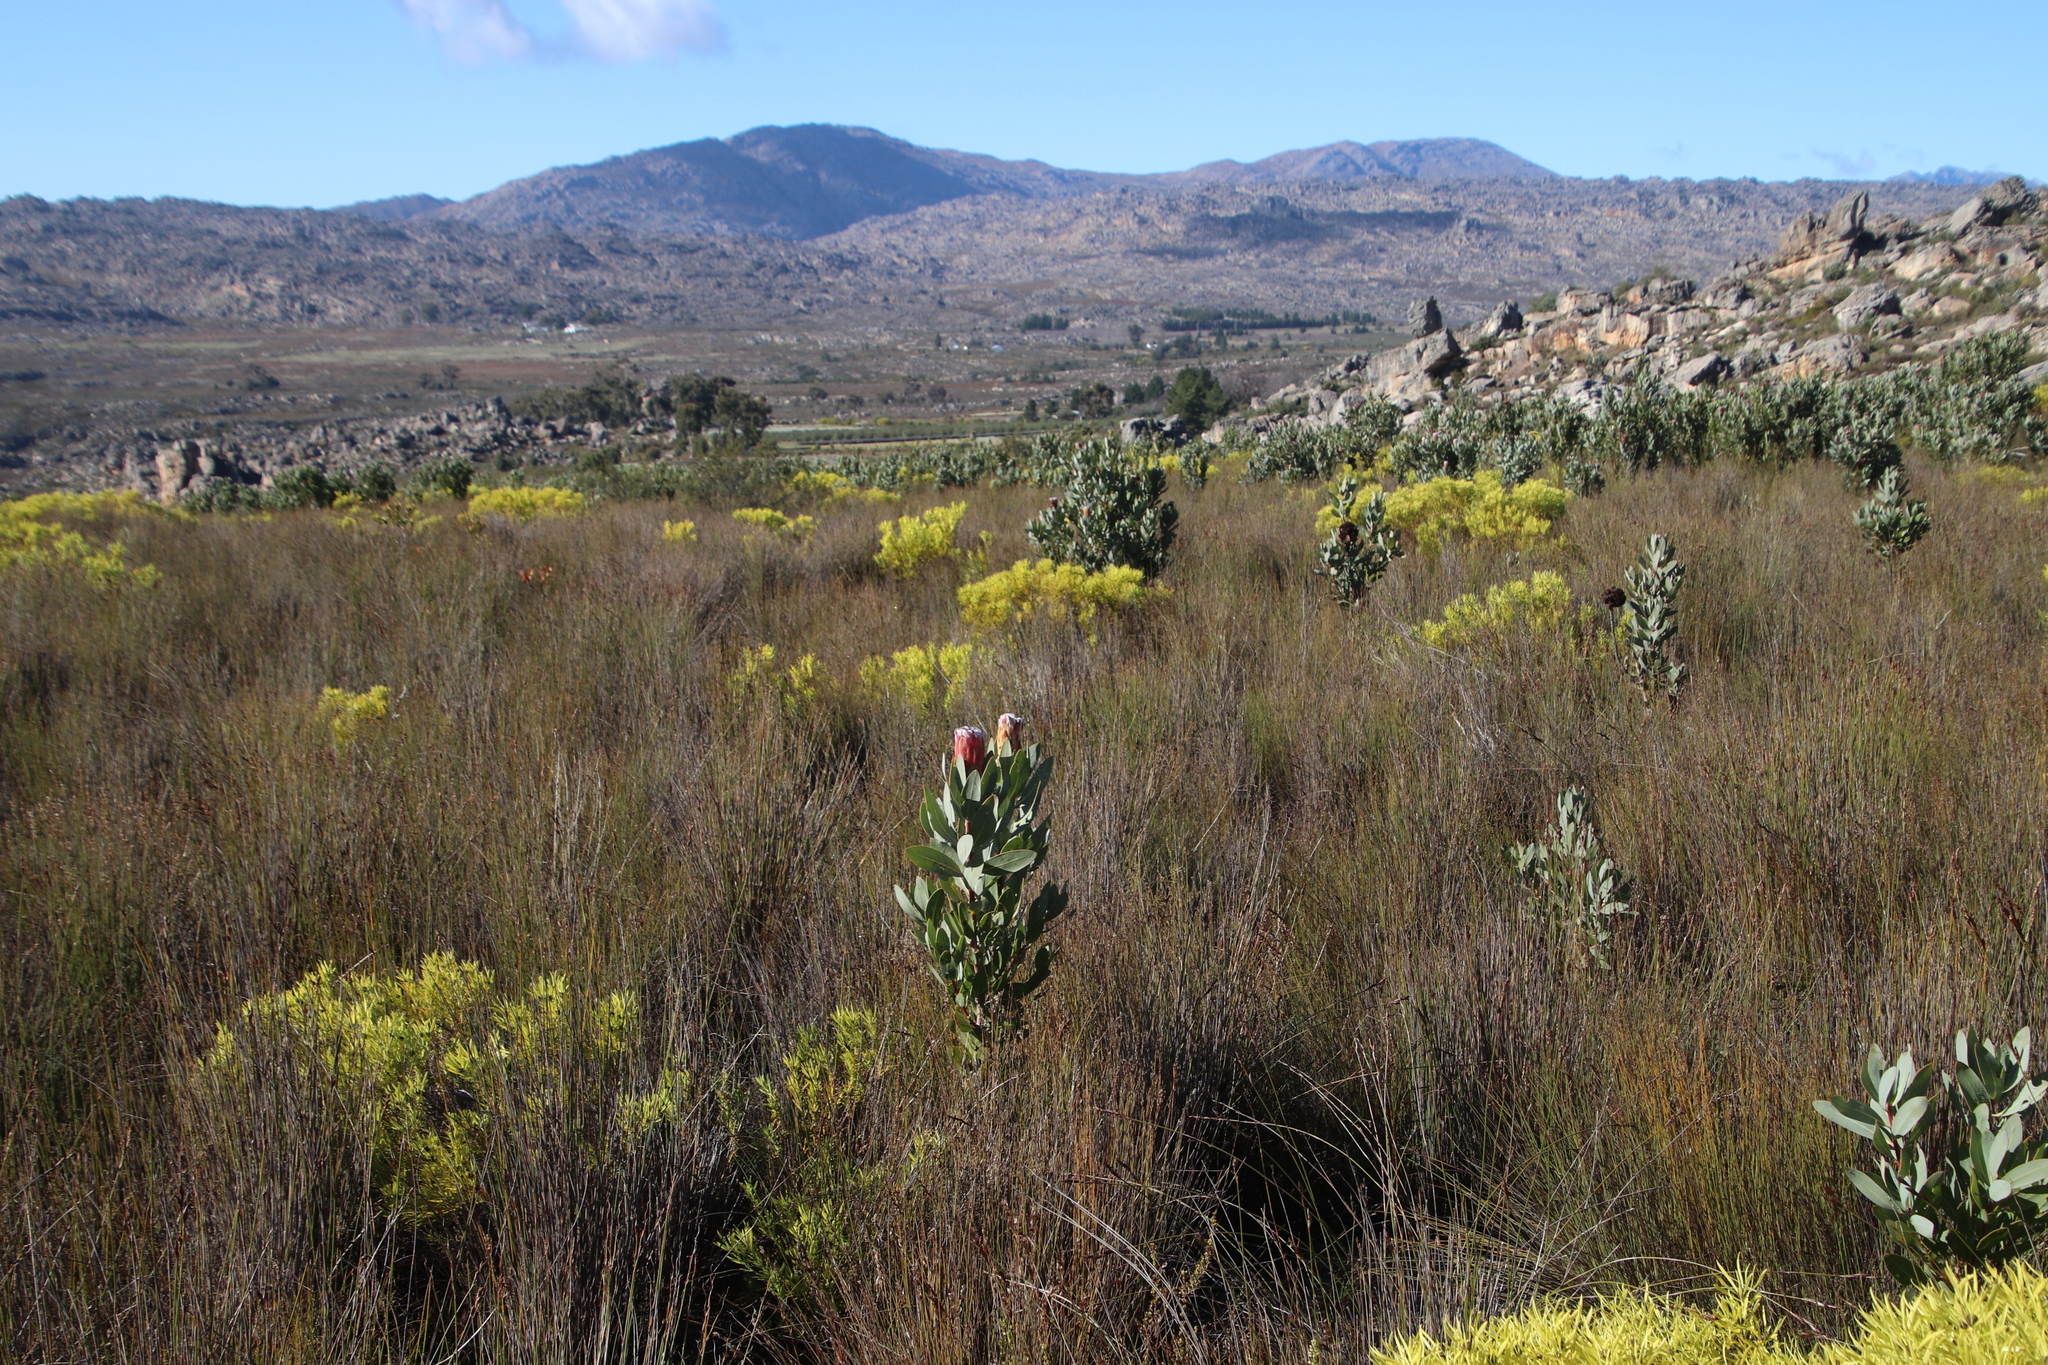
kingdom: Plantae
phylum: Tracheophyta
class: Magnoliopsida
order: Proteales
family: Proteaceae
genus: Protea
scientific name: Protea laurifolia
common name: Grey-leaf sugarbsh
